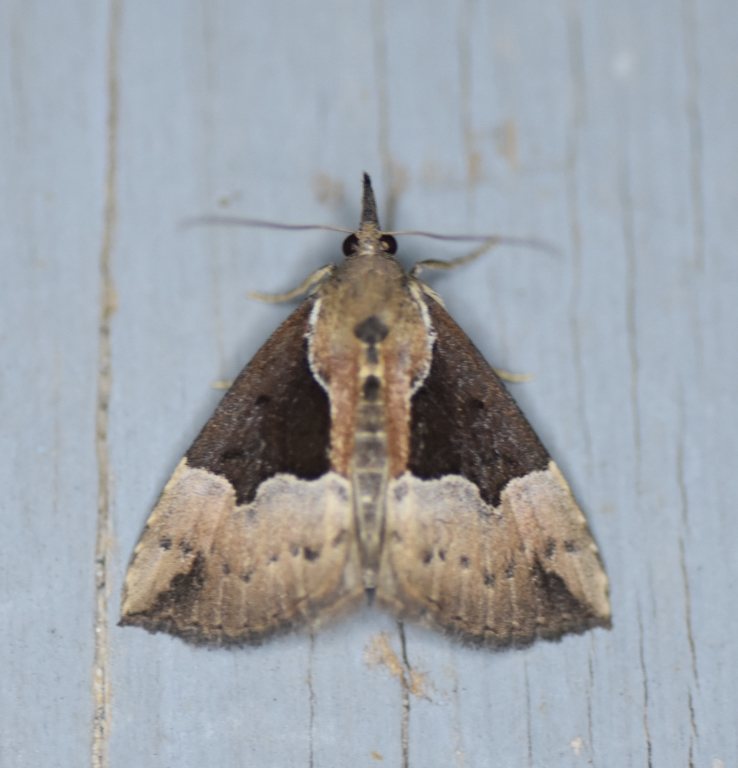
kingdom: Animalia
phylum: Arthropoda
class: Insecta
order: Lepidoptera
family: Erebidae
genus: Hypena
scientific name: Hypena bijugalis
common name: Dimorphic bomolocha moth
